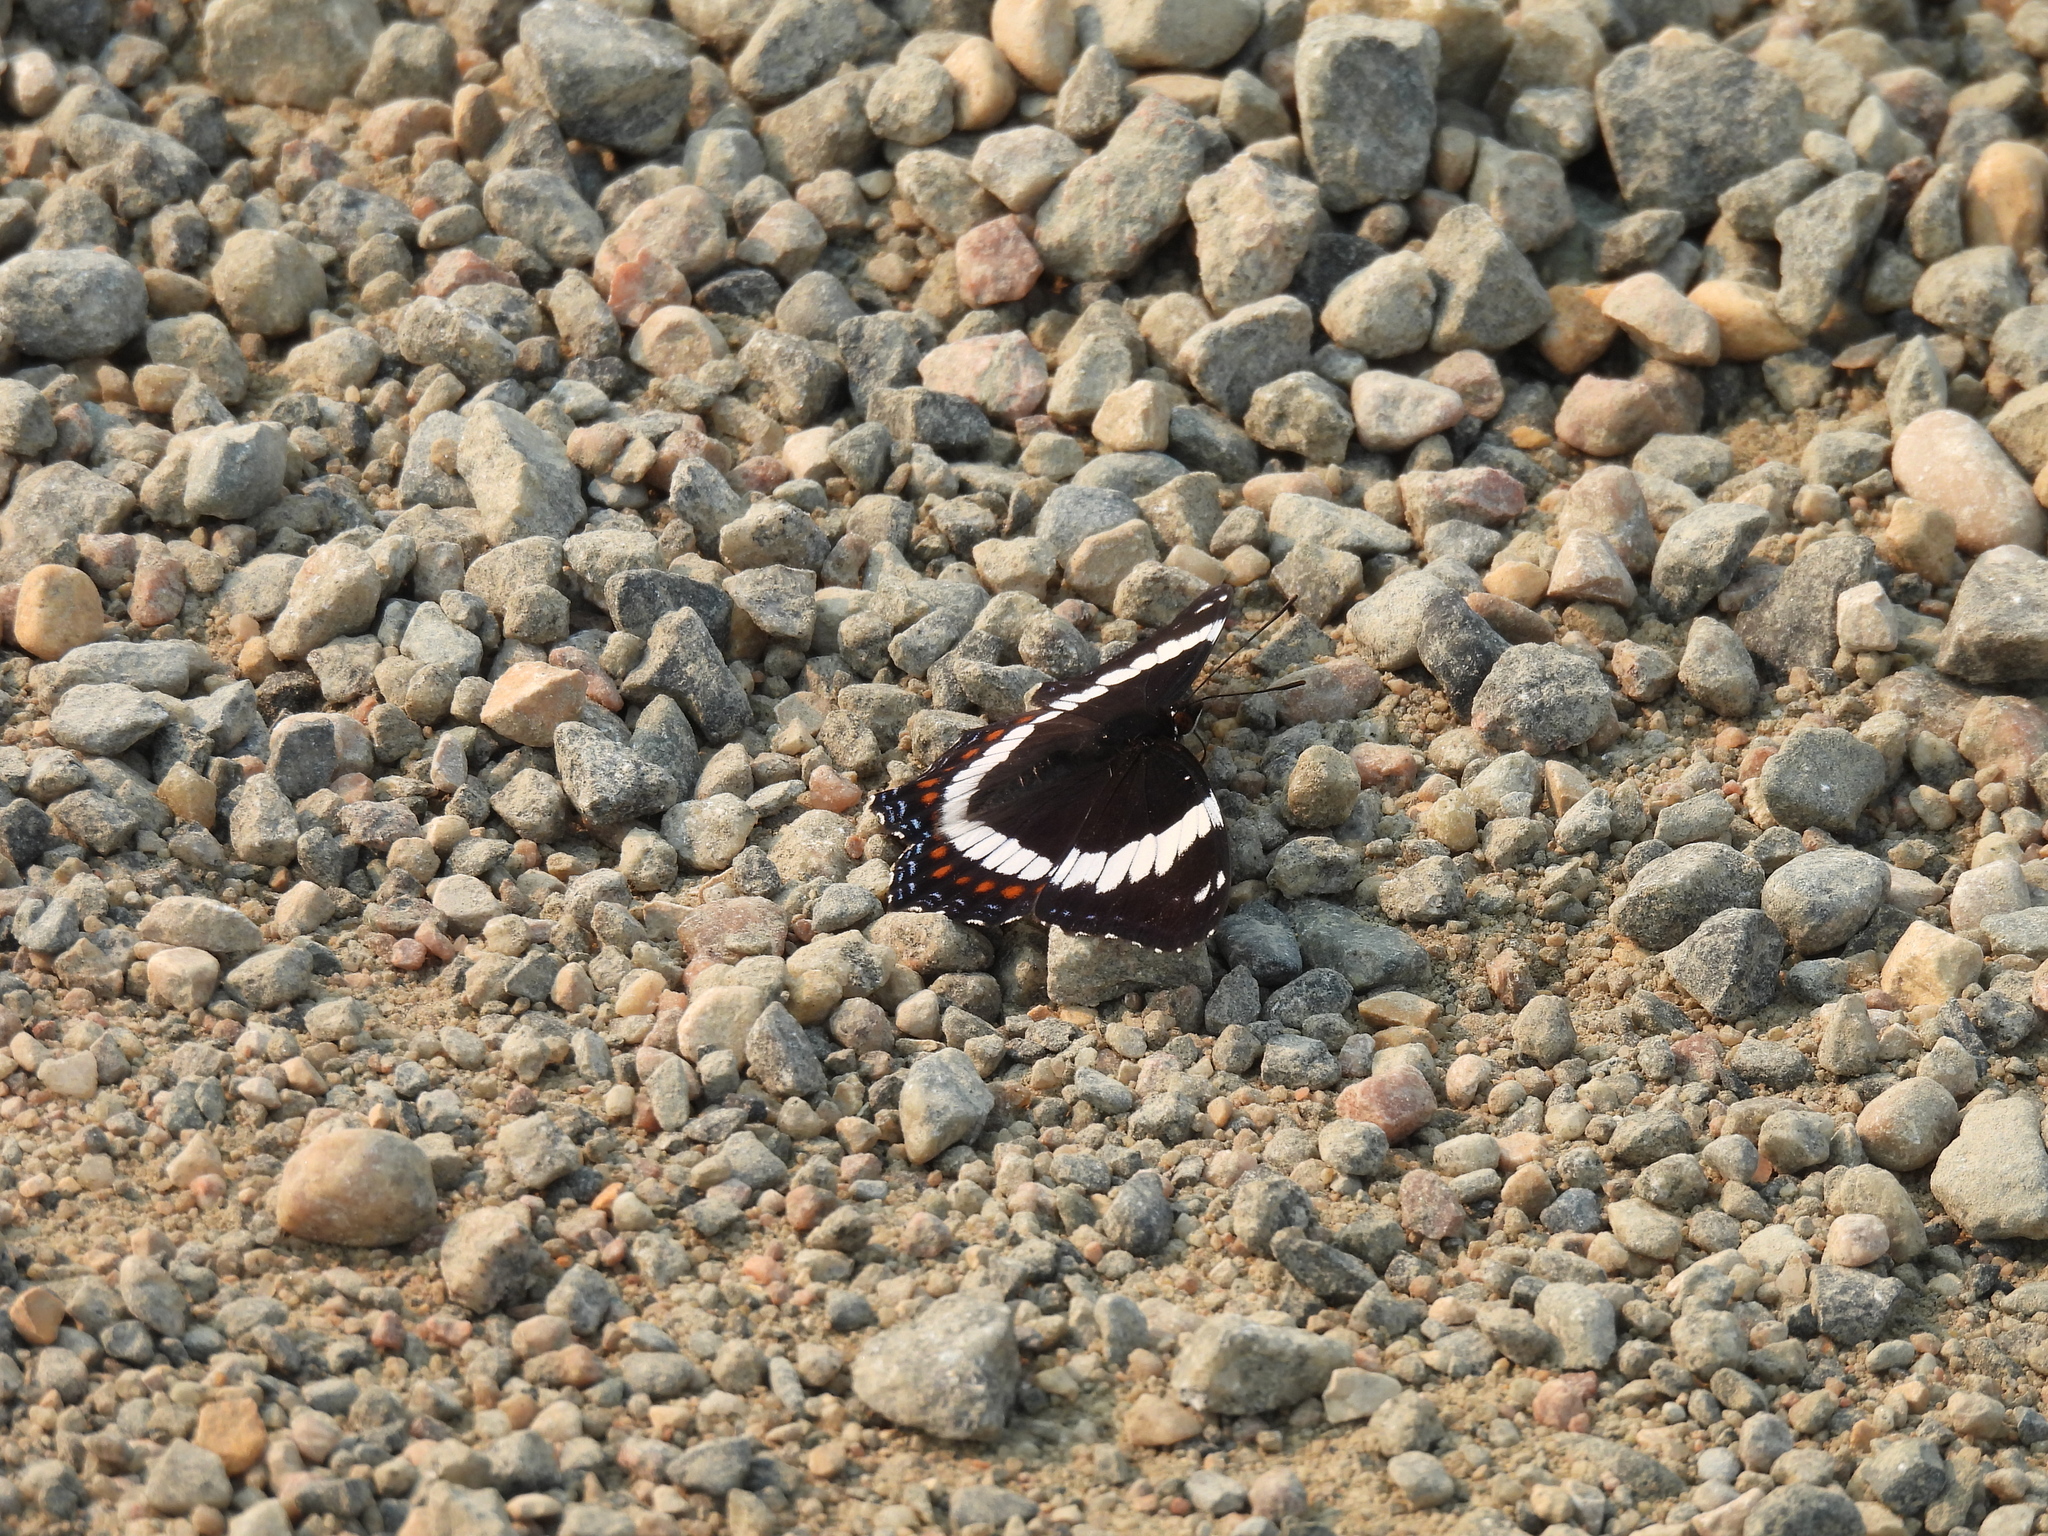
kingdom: Animalia
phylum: Arthropoda
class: Insecta
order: Lepidoptera
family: Nymphalidae
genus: Limenitis
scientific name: Limenitis arthemis
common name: Red-spotted admiral
